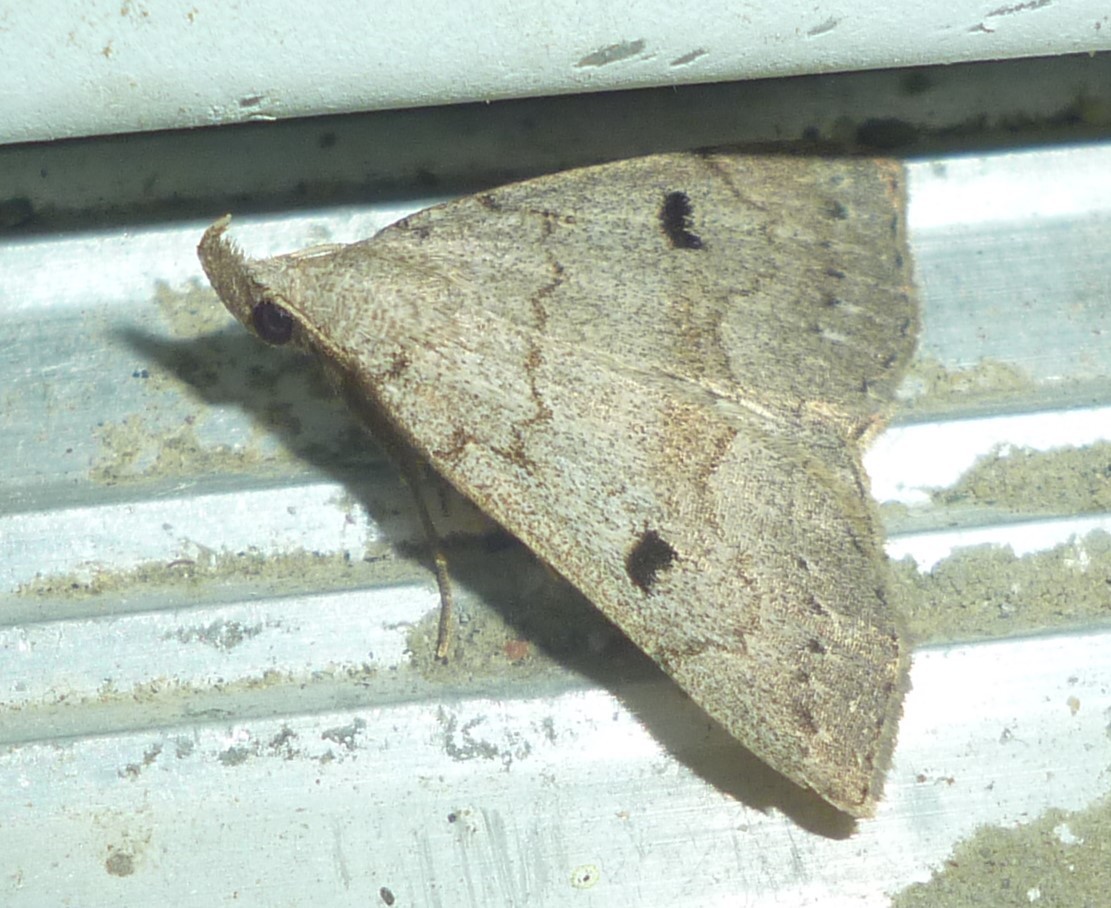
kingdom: Animalia
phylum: Arthropoda
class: Insecta
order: Lepidoptera
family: Erebidae
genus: Macrochilo
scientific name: Macrochilo morbidalis
